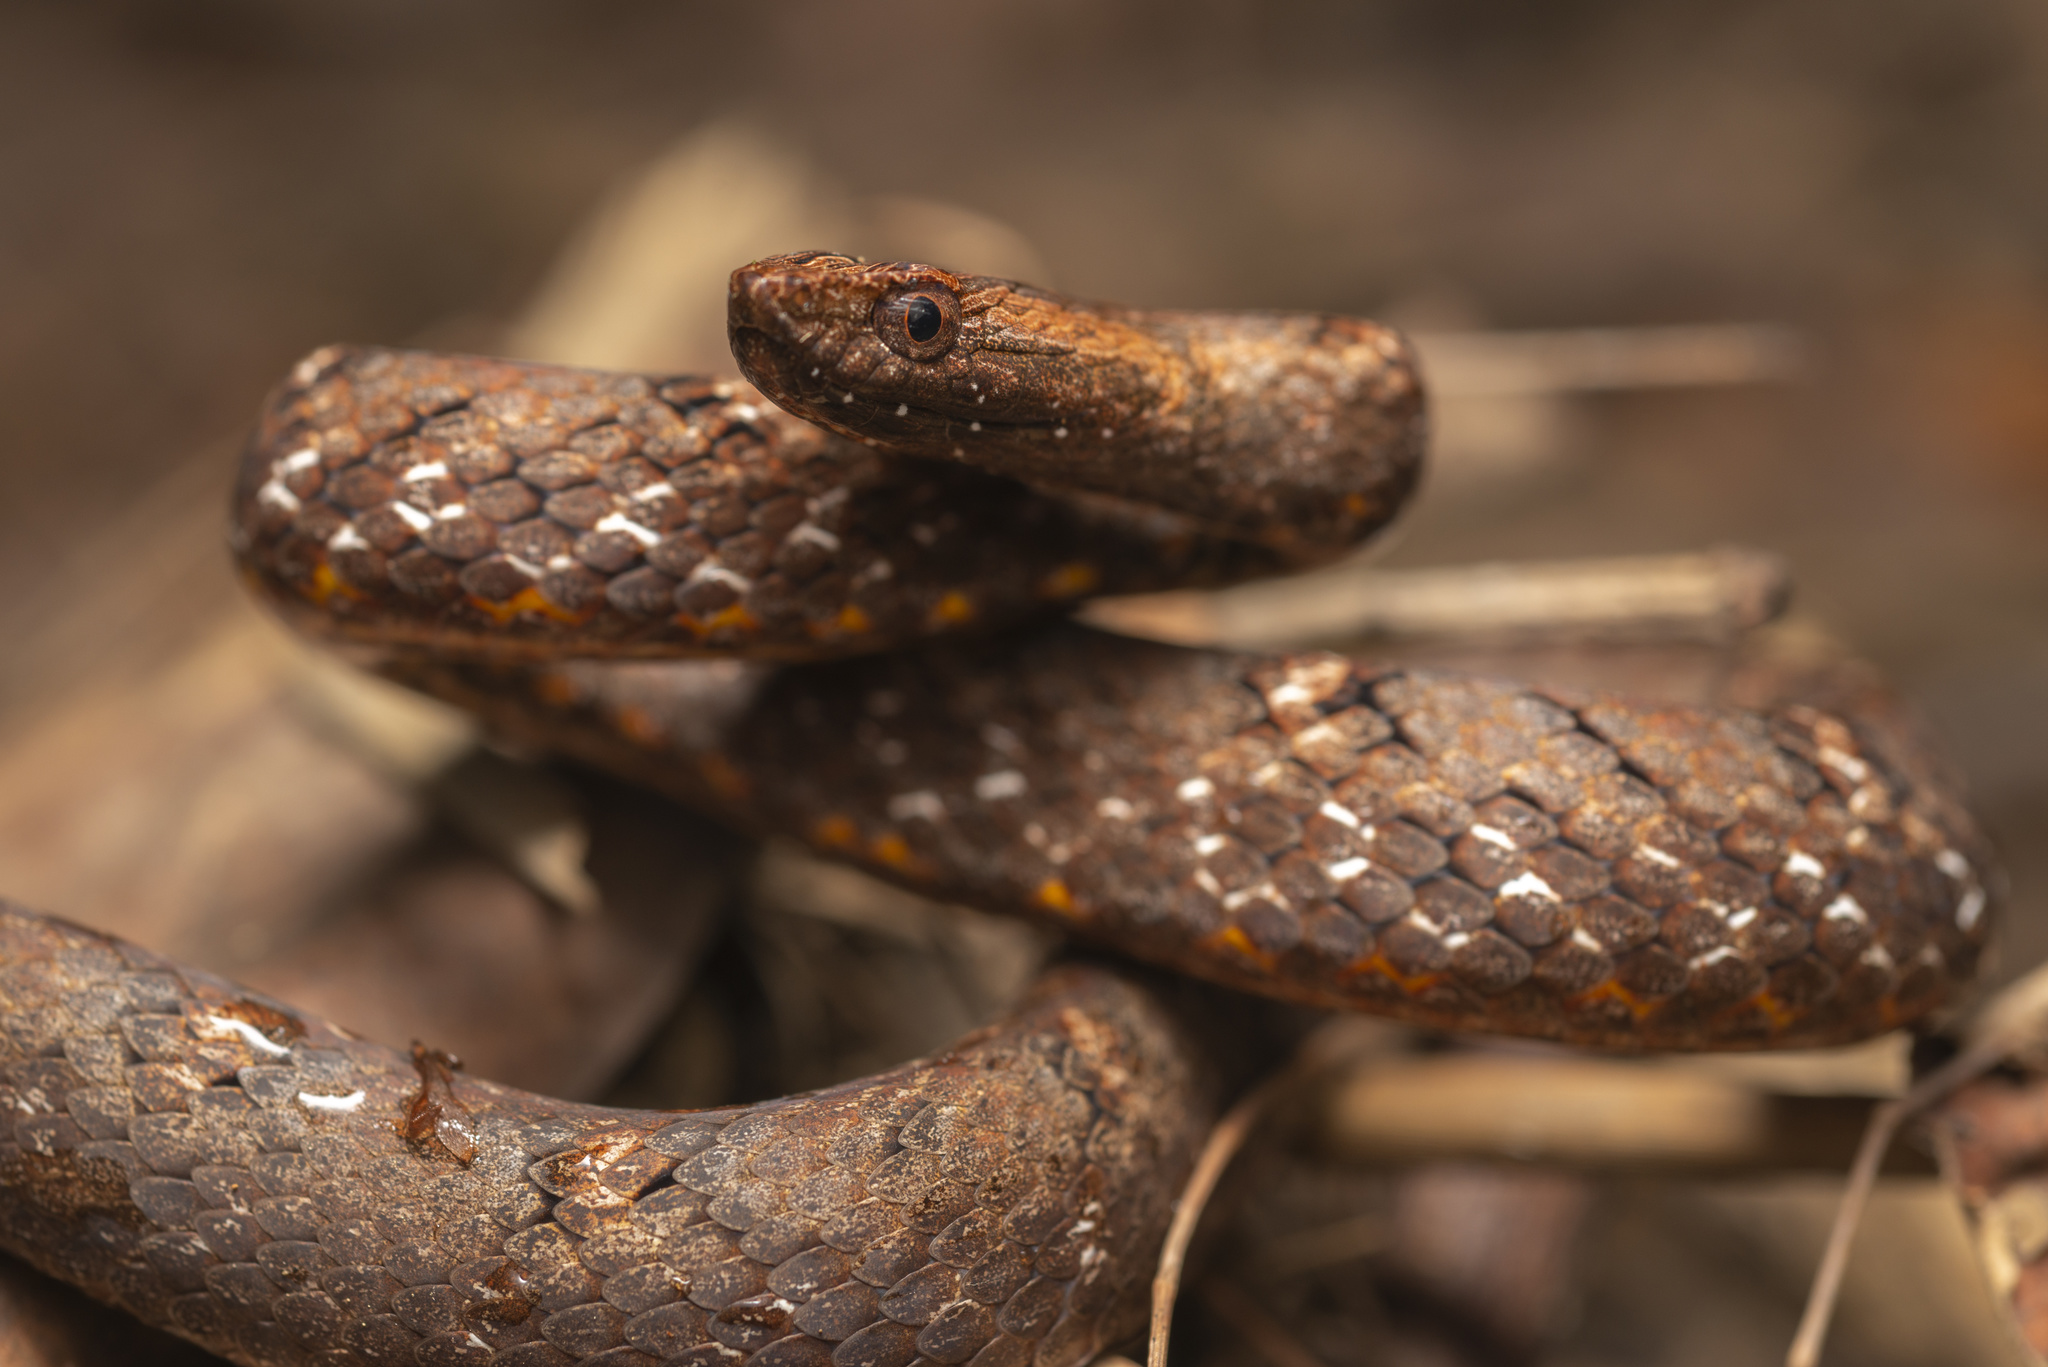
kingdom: Animalia
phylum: Chordata
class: Squamata
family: Pseudaspididae
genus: Psammodynastes
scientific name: Psammodynastes pulverulentus
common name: Common mock viper
